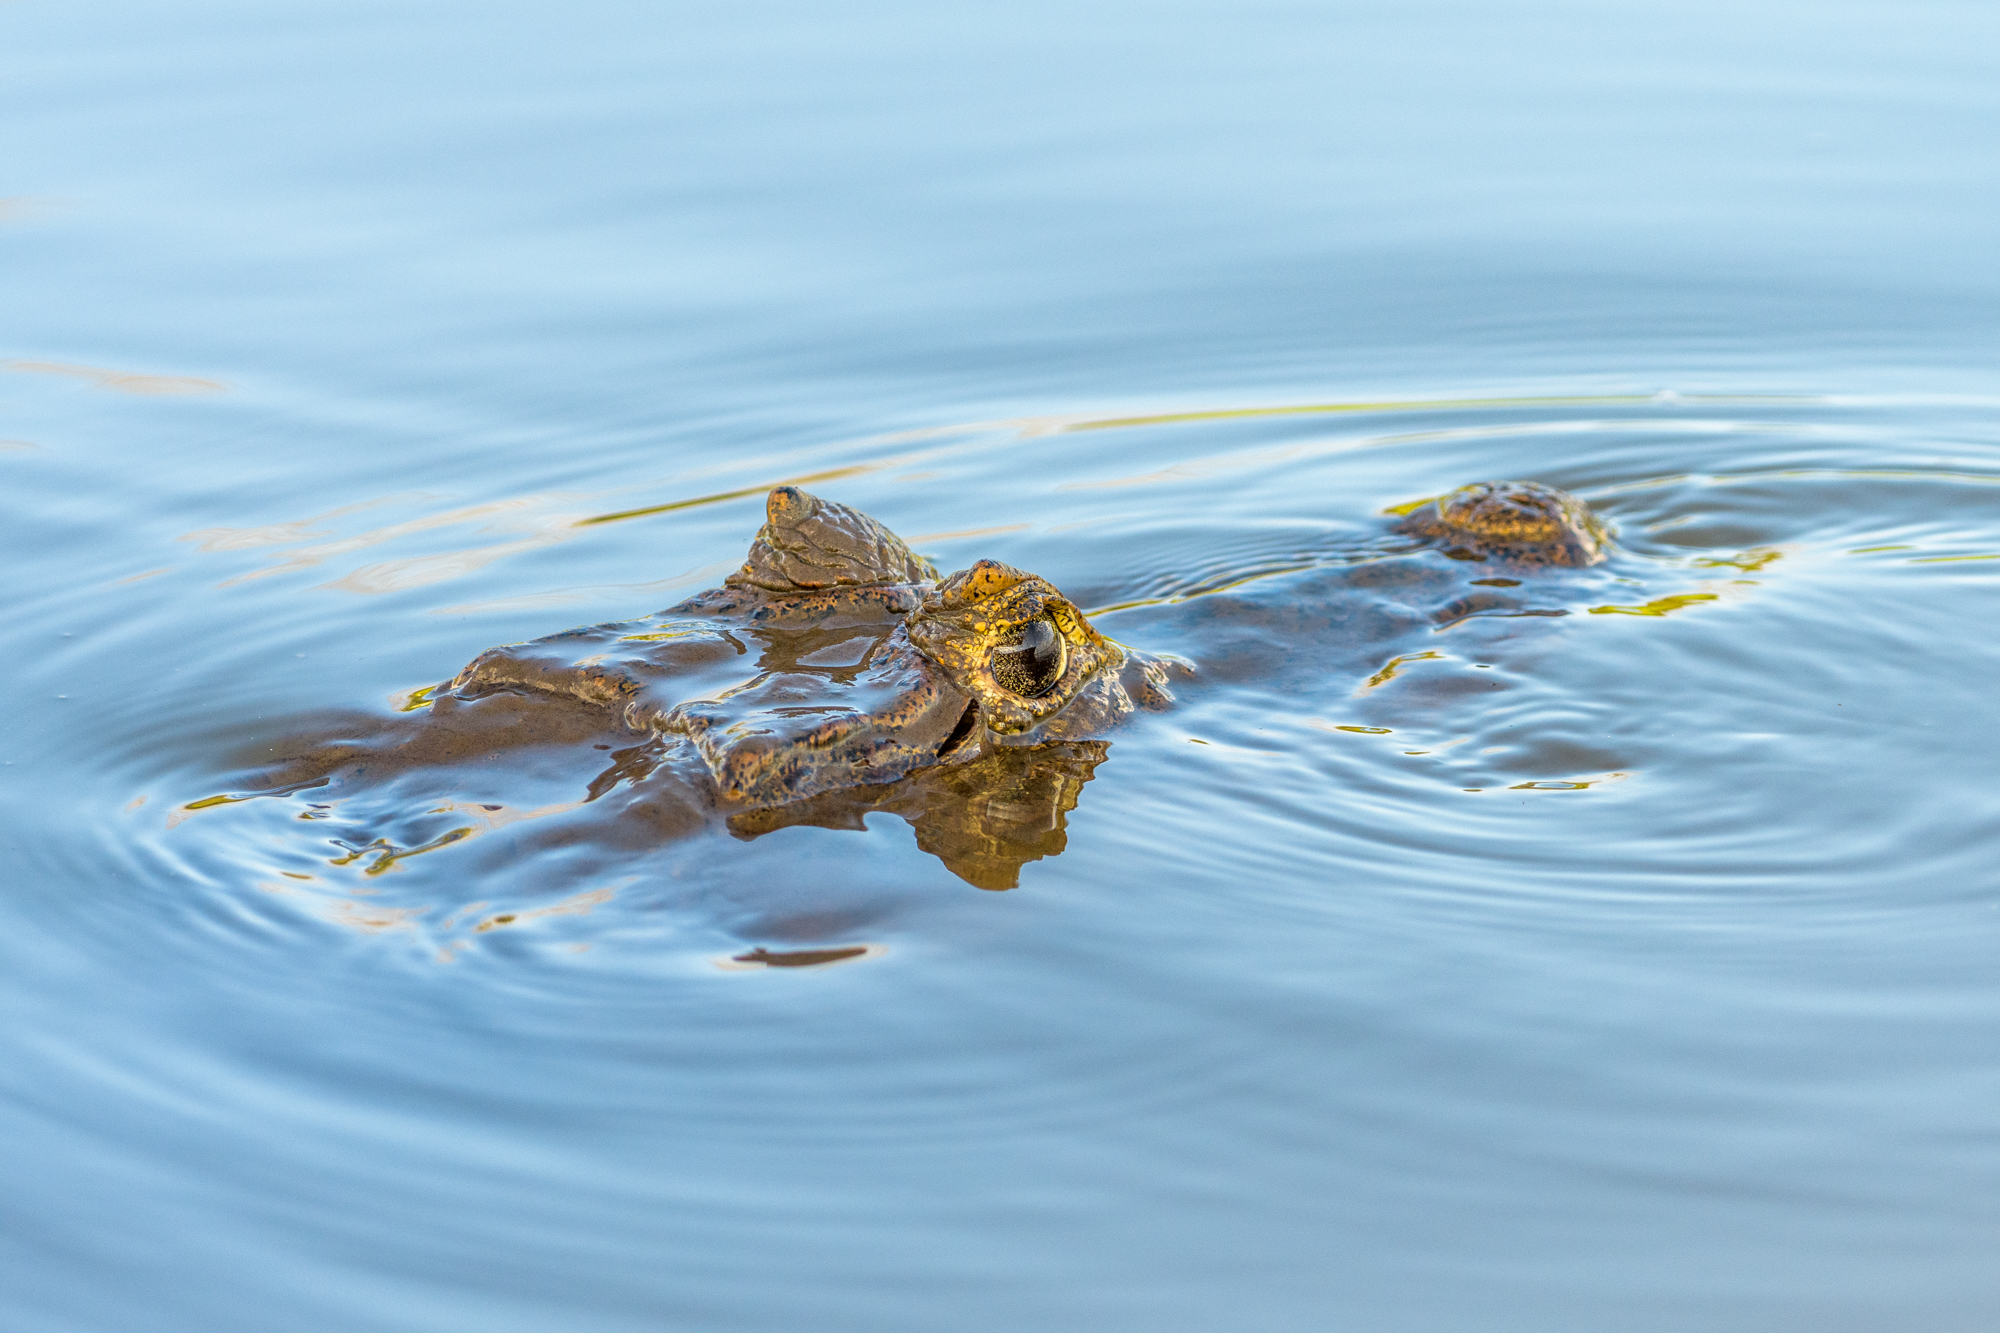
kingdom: Animalia
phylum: Chordata
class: Crocodylia
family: Alligatoridae
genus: Caiman
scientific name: Caiman crocodilus
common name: Common caiman
